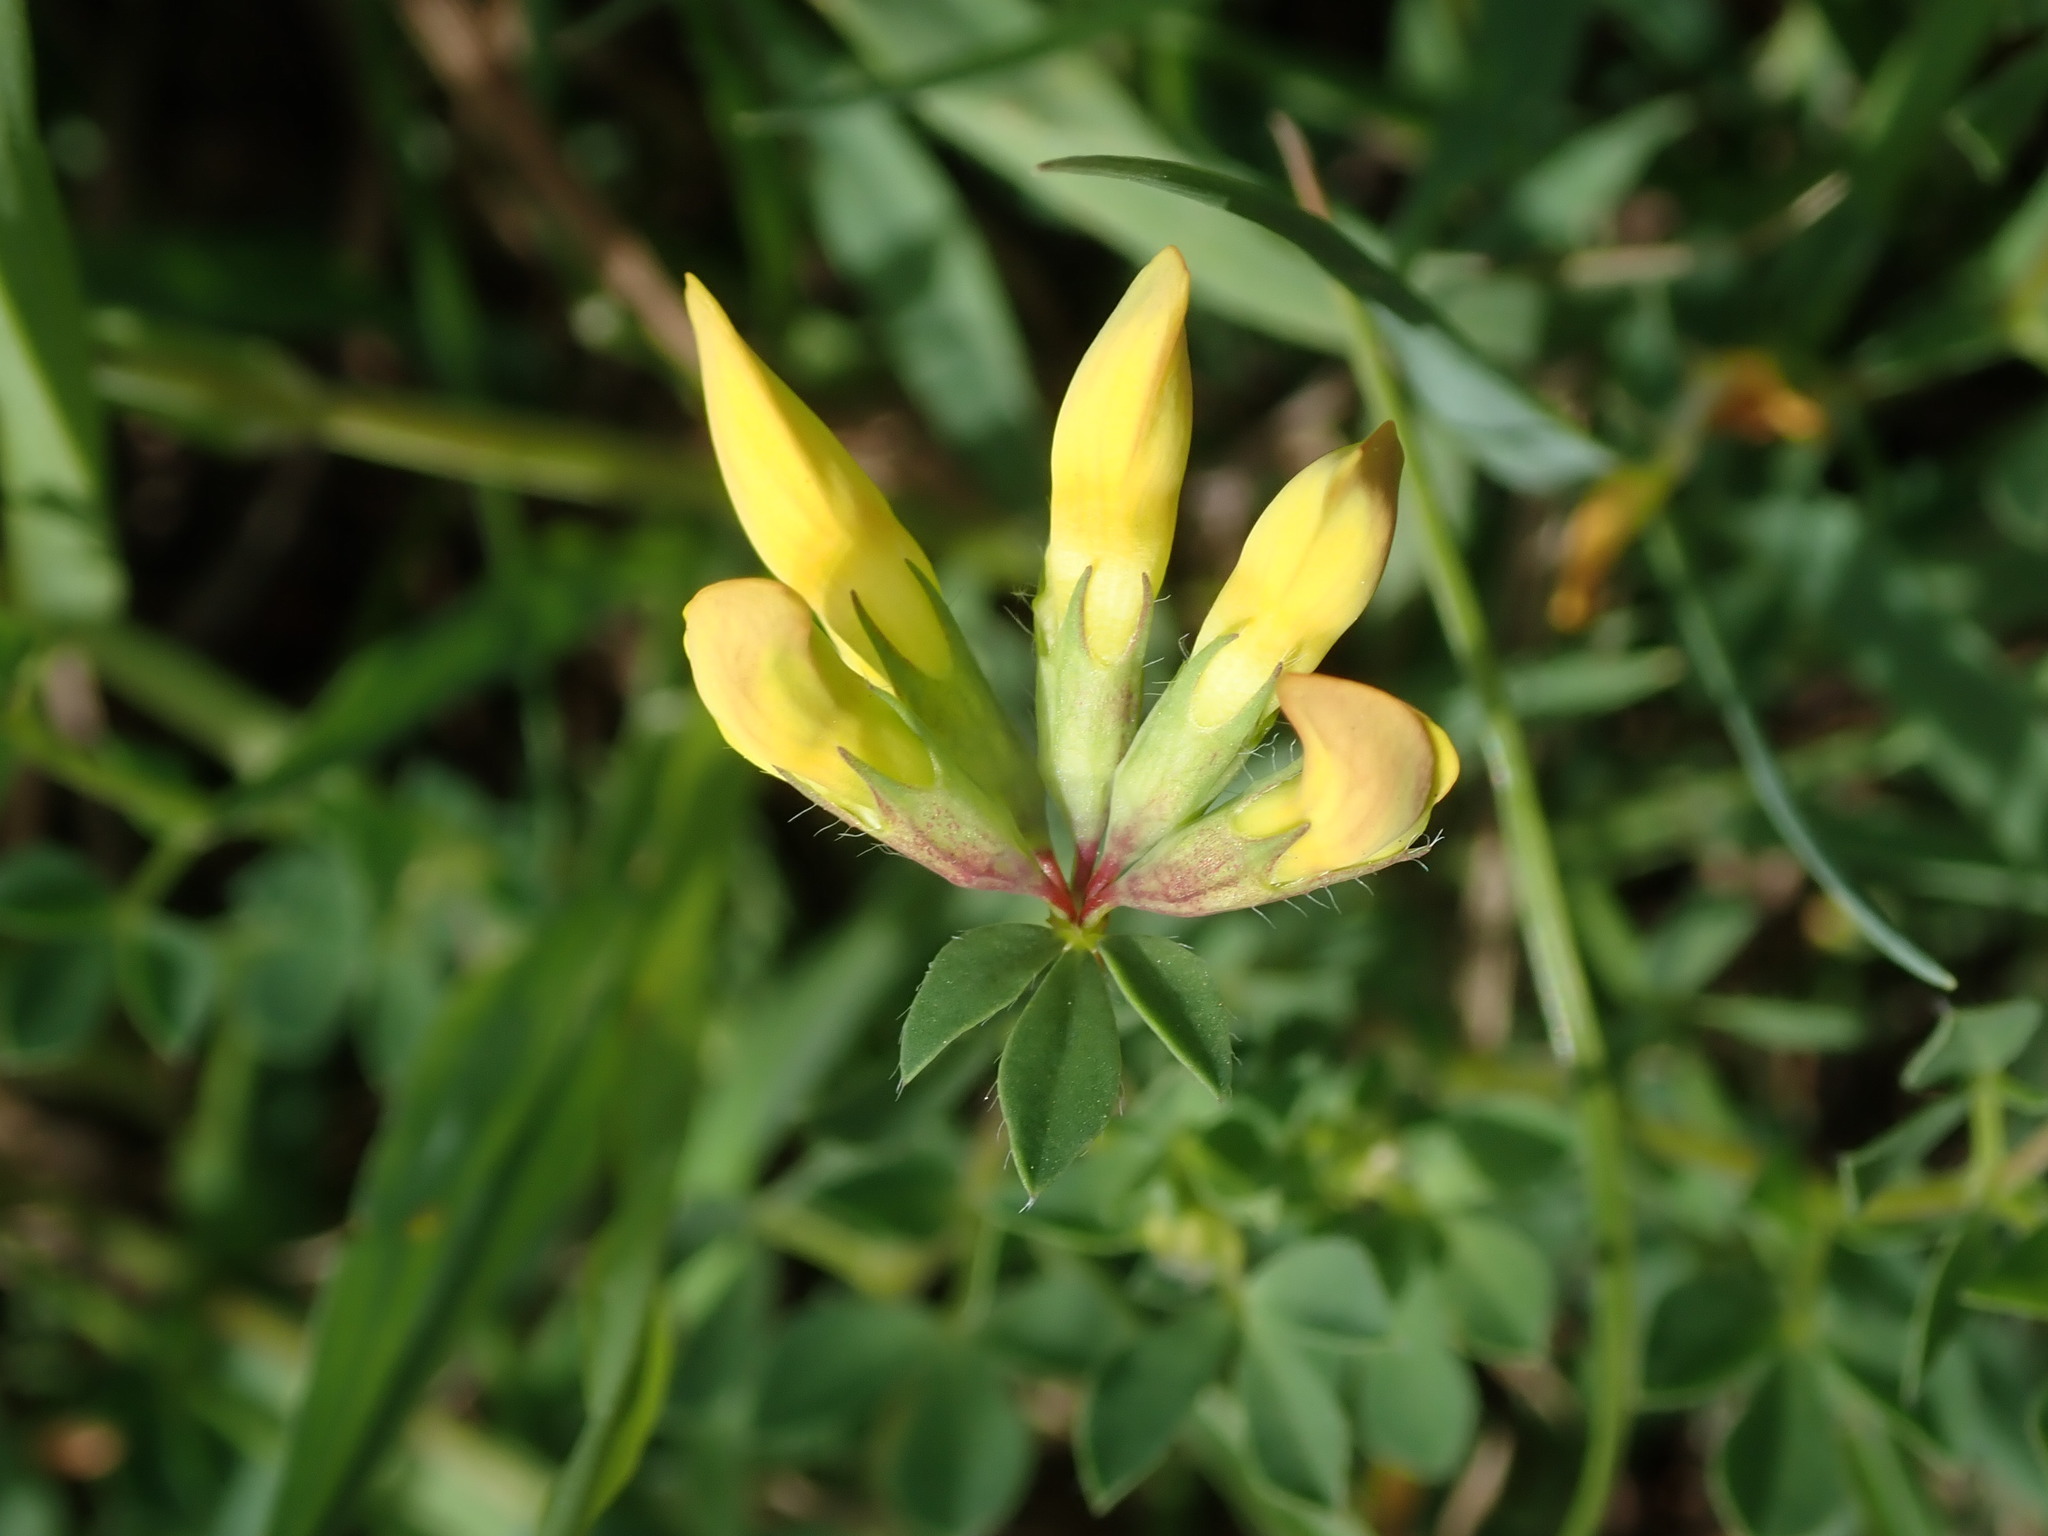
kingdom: Plantae
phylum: Tracheophyta
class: Magnoliopsida
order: Fabales
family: Fabaceae
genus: Lotus
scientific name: Lotus corniculatus
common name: Common bird's-foot-trefoil
